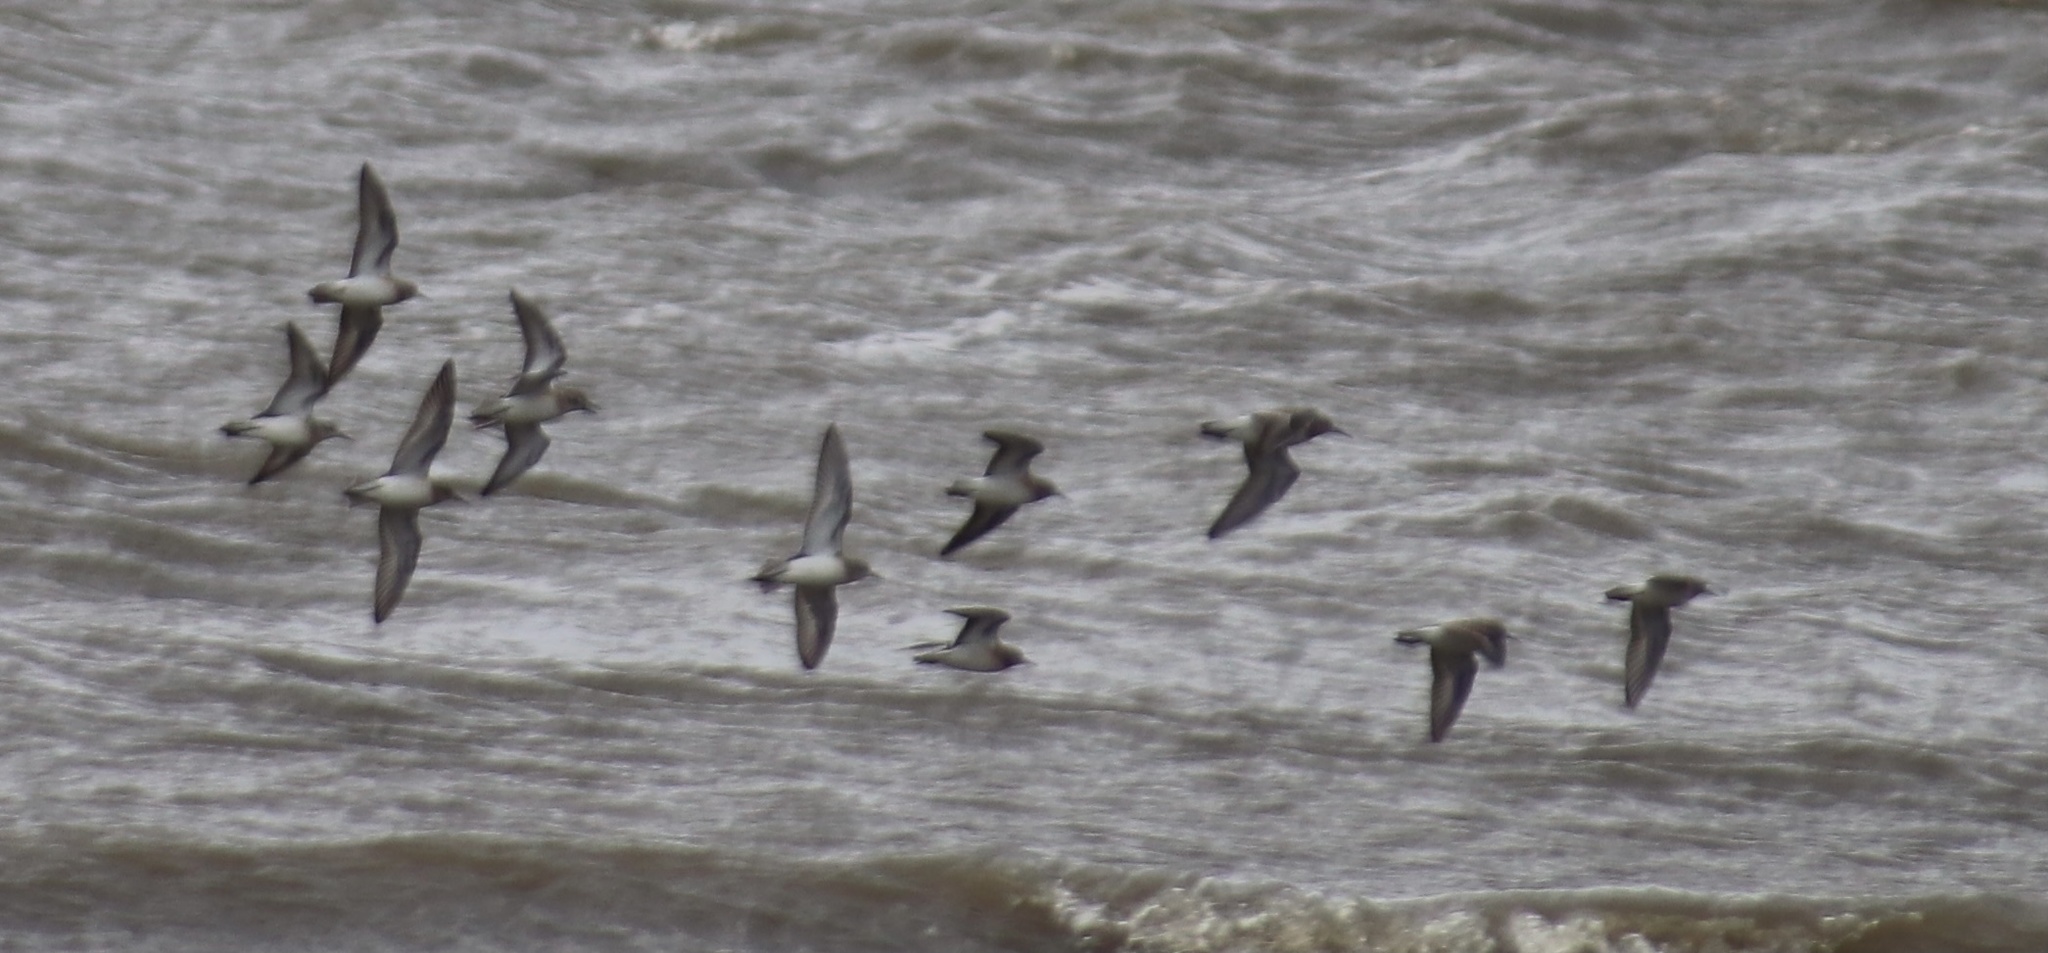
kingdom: Animalia
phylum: Chordata
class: Aves
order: Charadriiformes
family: Scolopacidae
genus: Calidris
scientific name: Calidris fuscicollis
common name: White-rumped sandpiper
